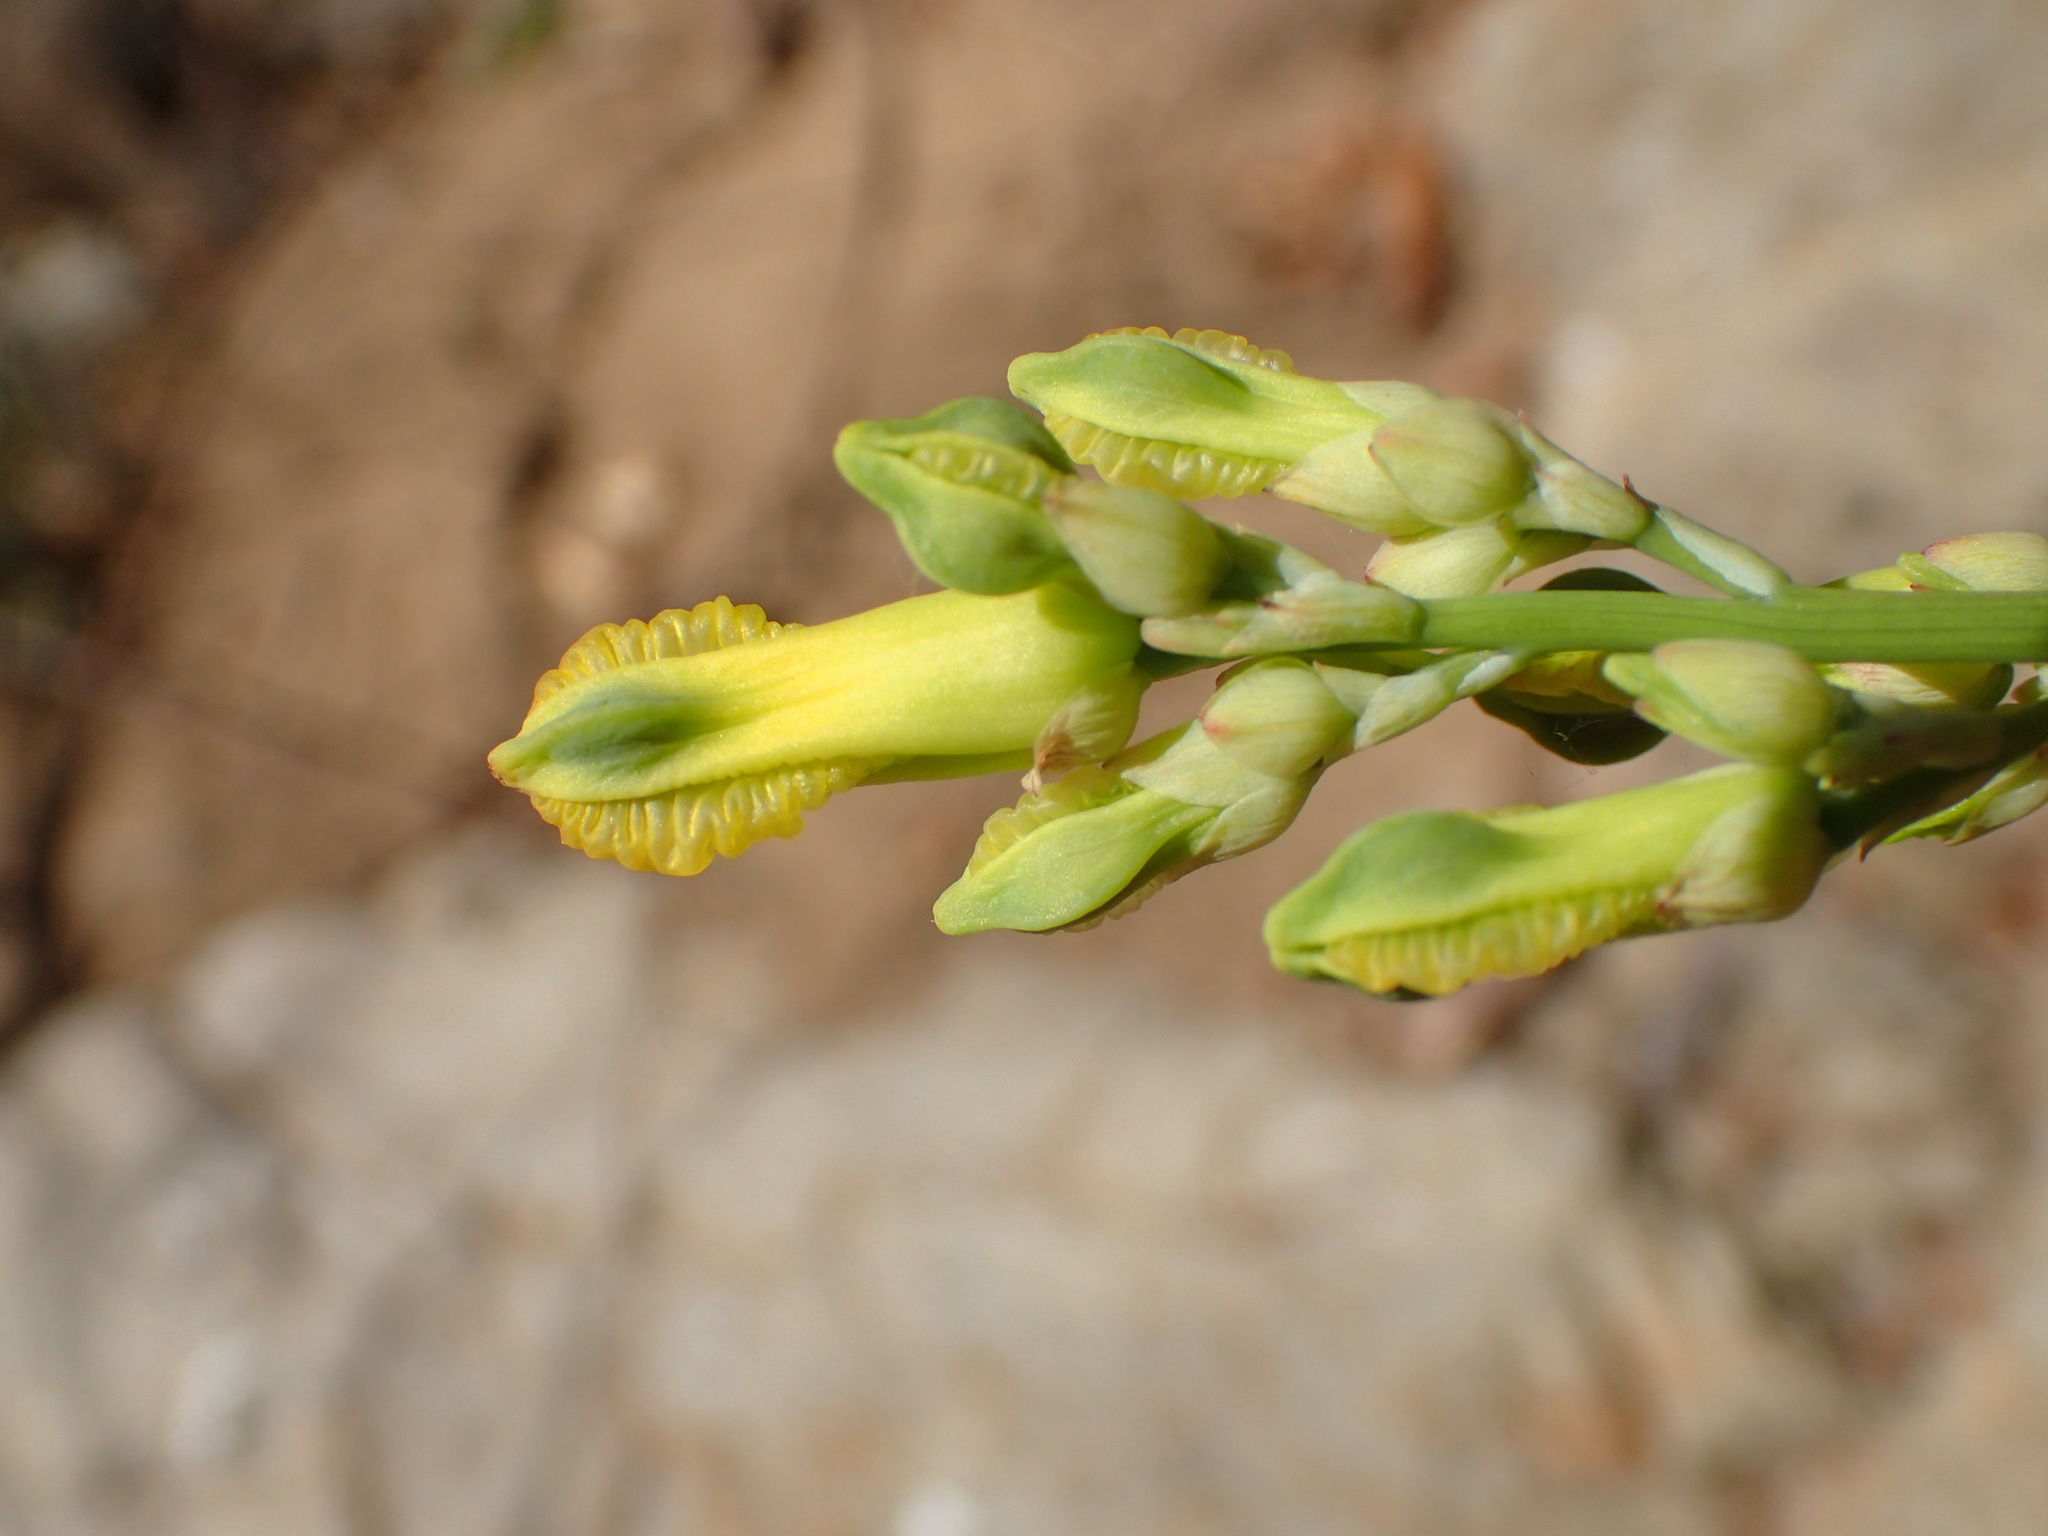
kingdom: Plantae
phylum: Tracheophyta
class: Magnoliopsida
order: Ranunculales
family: Papaveraceae
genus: Ehrendorferia
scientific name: Ehrendorferia chrysantha
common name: Golden eardrops
